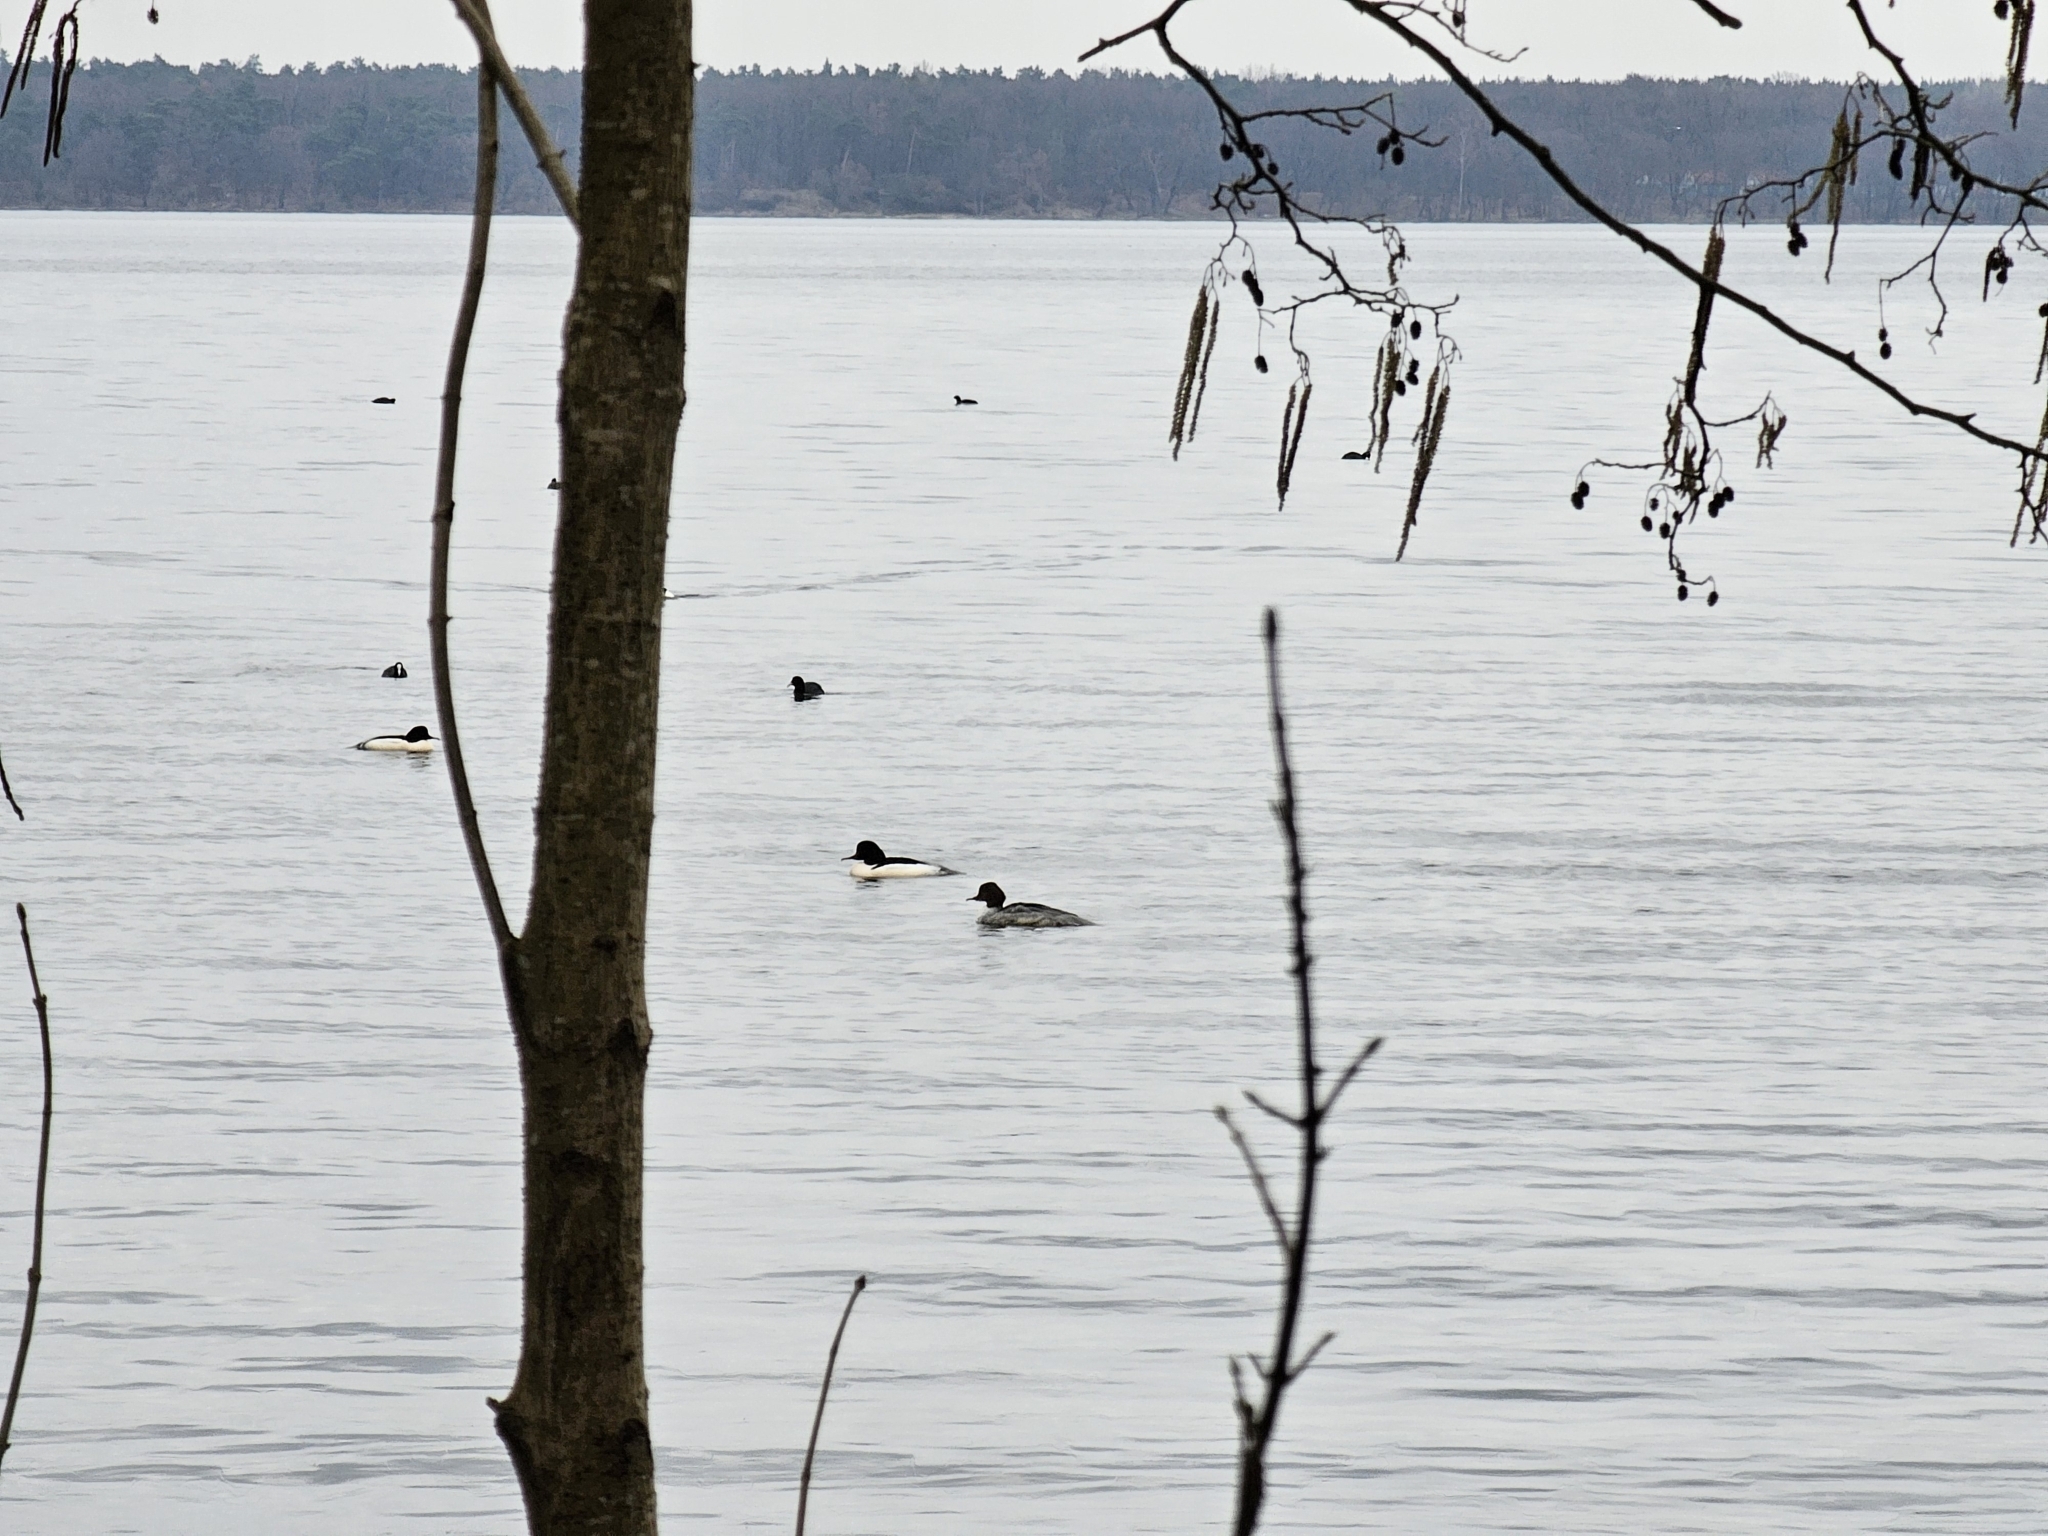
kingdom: Animalia
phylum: Chordata
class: Aves
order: Anseriformes
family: Anatidae
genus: Mergus
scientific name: Mergus merganser
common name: Common merganser
